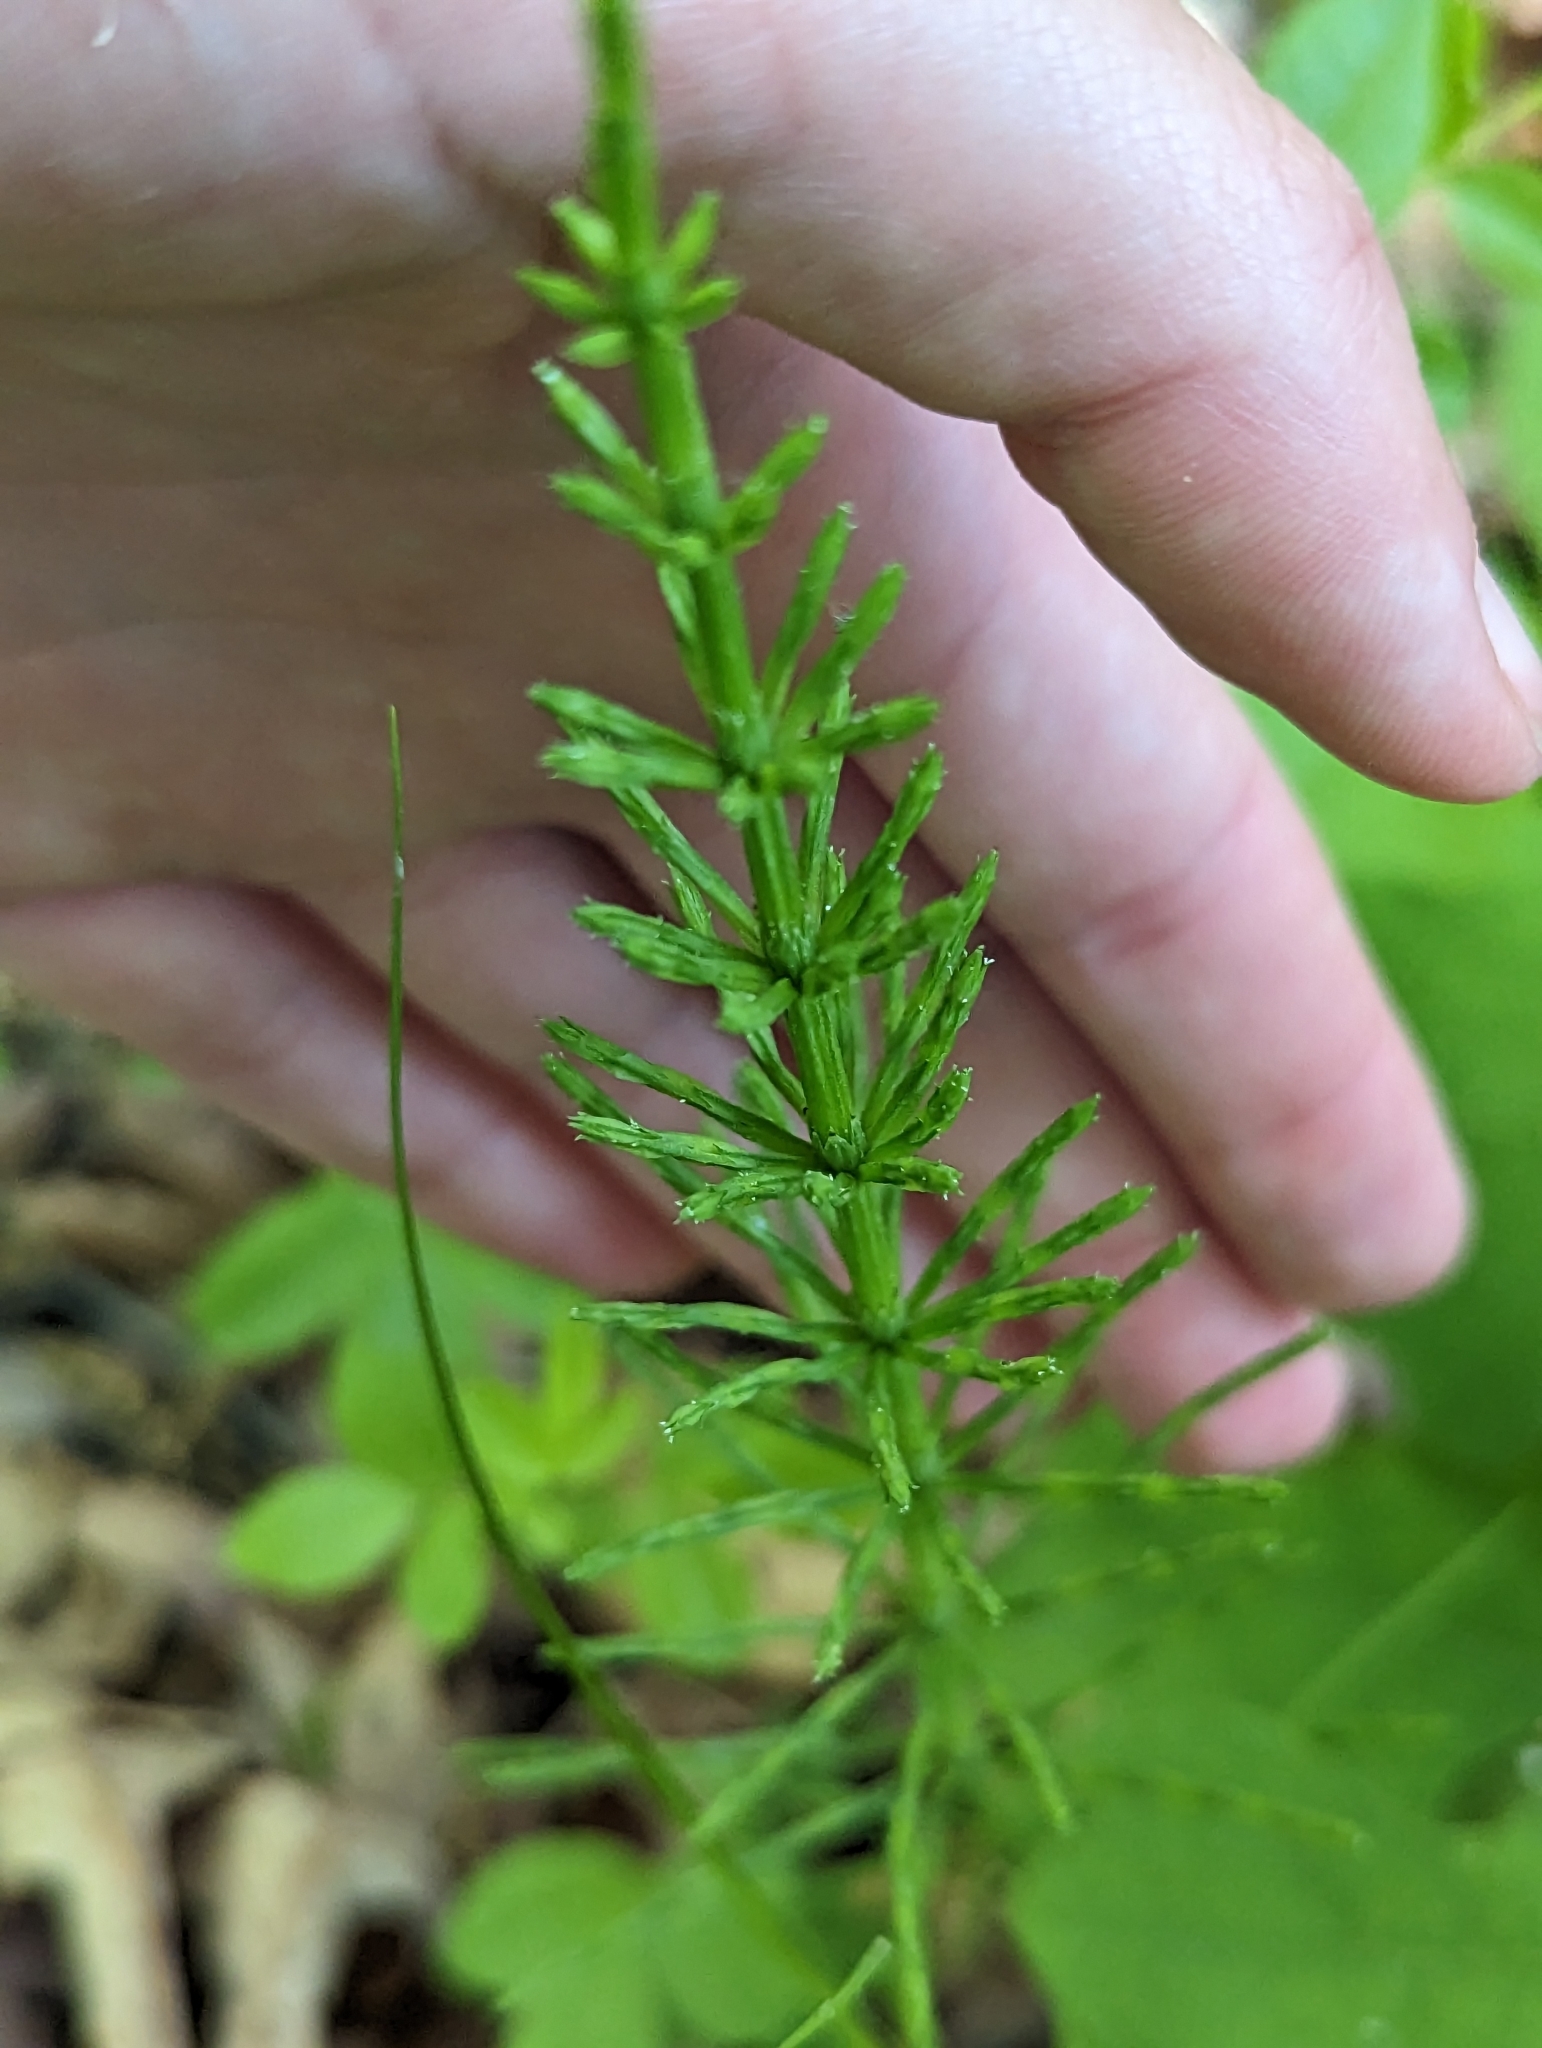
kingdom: Plantae
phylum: Tracheophyta
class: Polypodiopsida
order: Equisetales
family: Equisetaceae
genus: Equisetum
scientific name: Equisetum arvense
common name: Field horsetail
